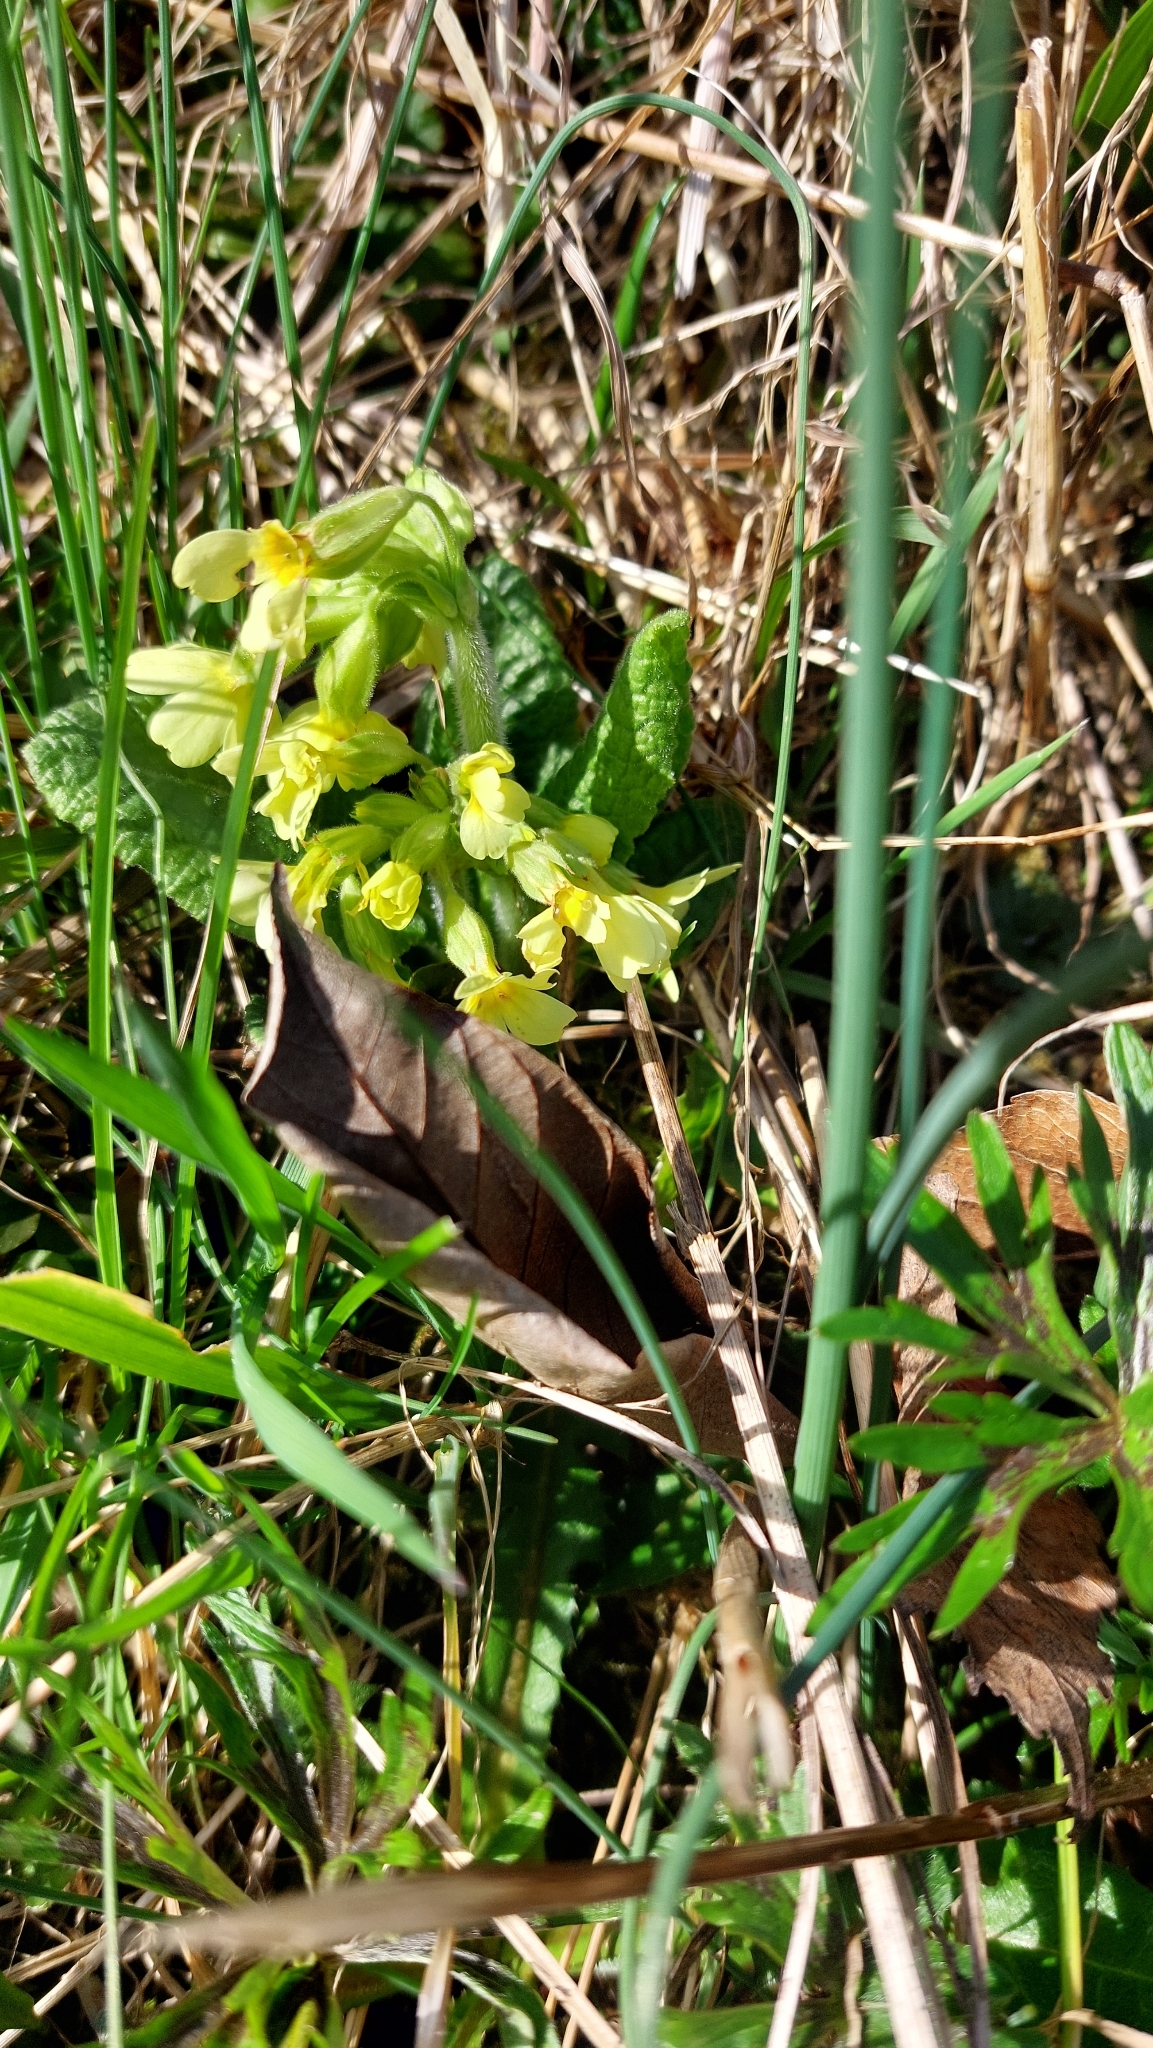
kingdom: Plantae
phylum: Tracheophyta
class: Magnoliopsida
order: Ericales
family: Primulaceae
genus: Primula
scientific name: Primula elatior
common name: Oxlip
